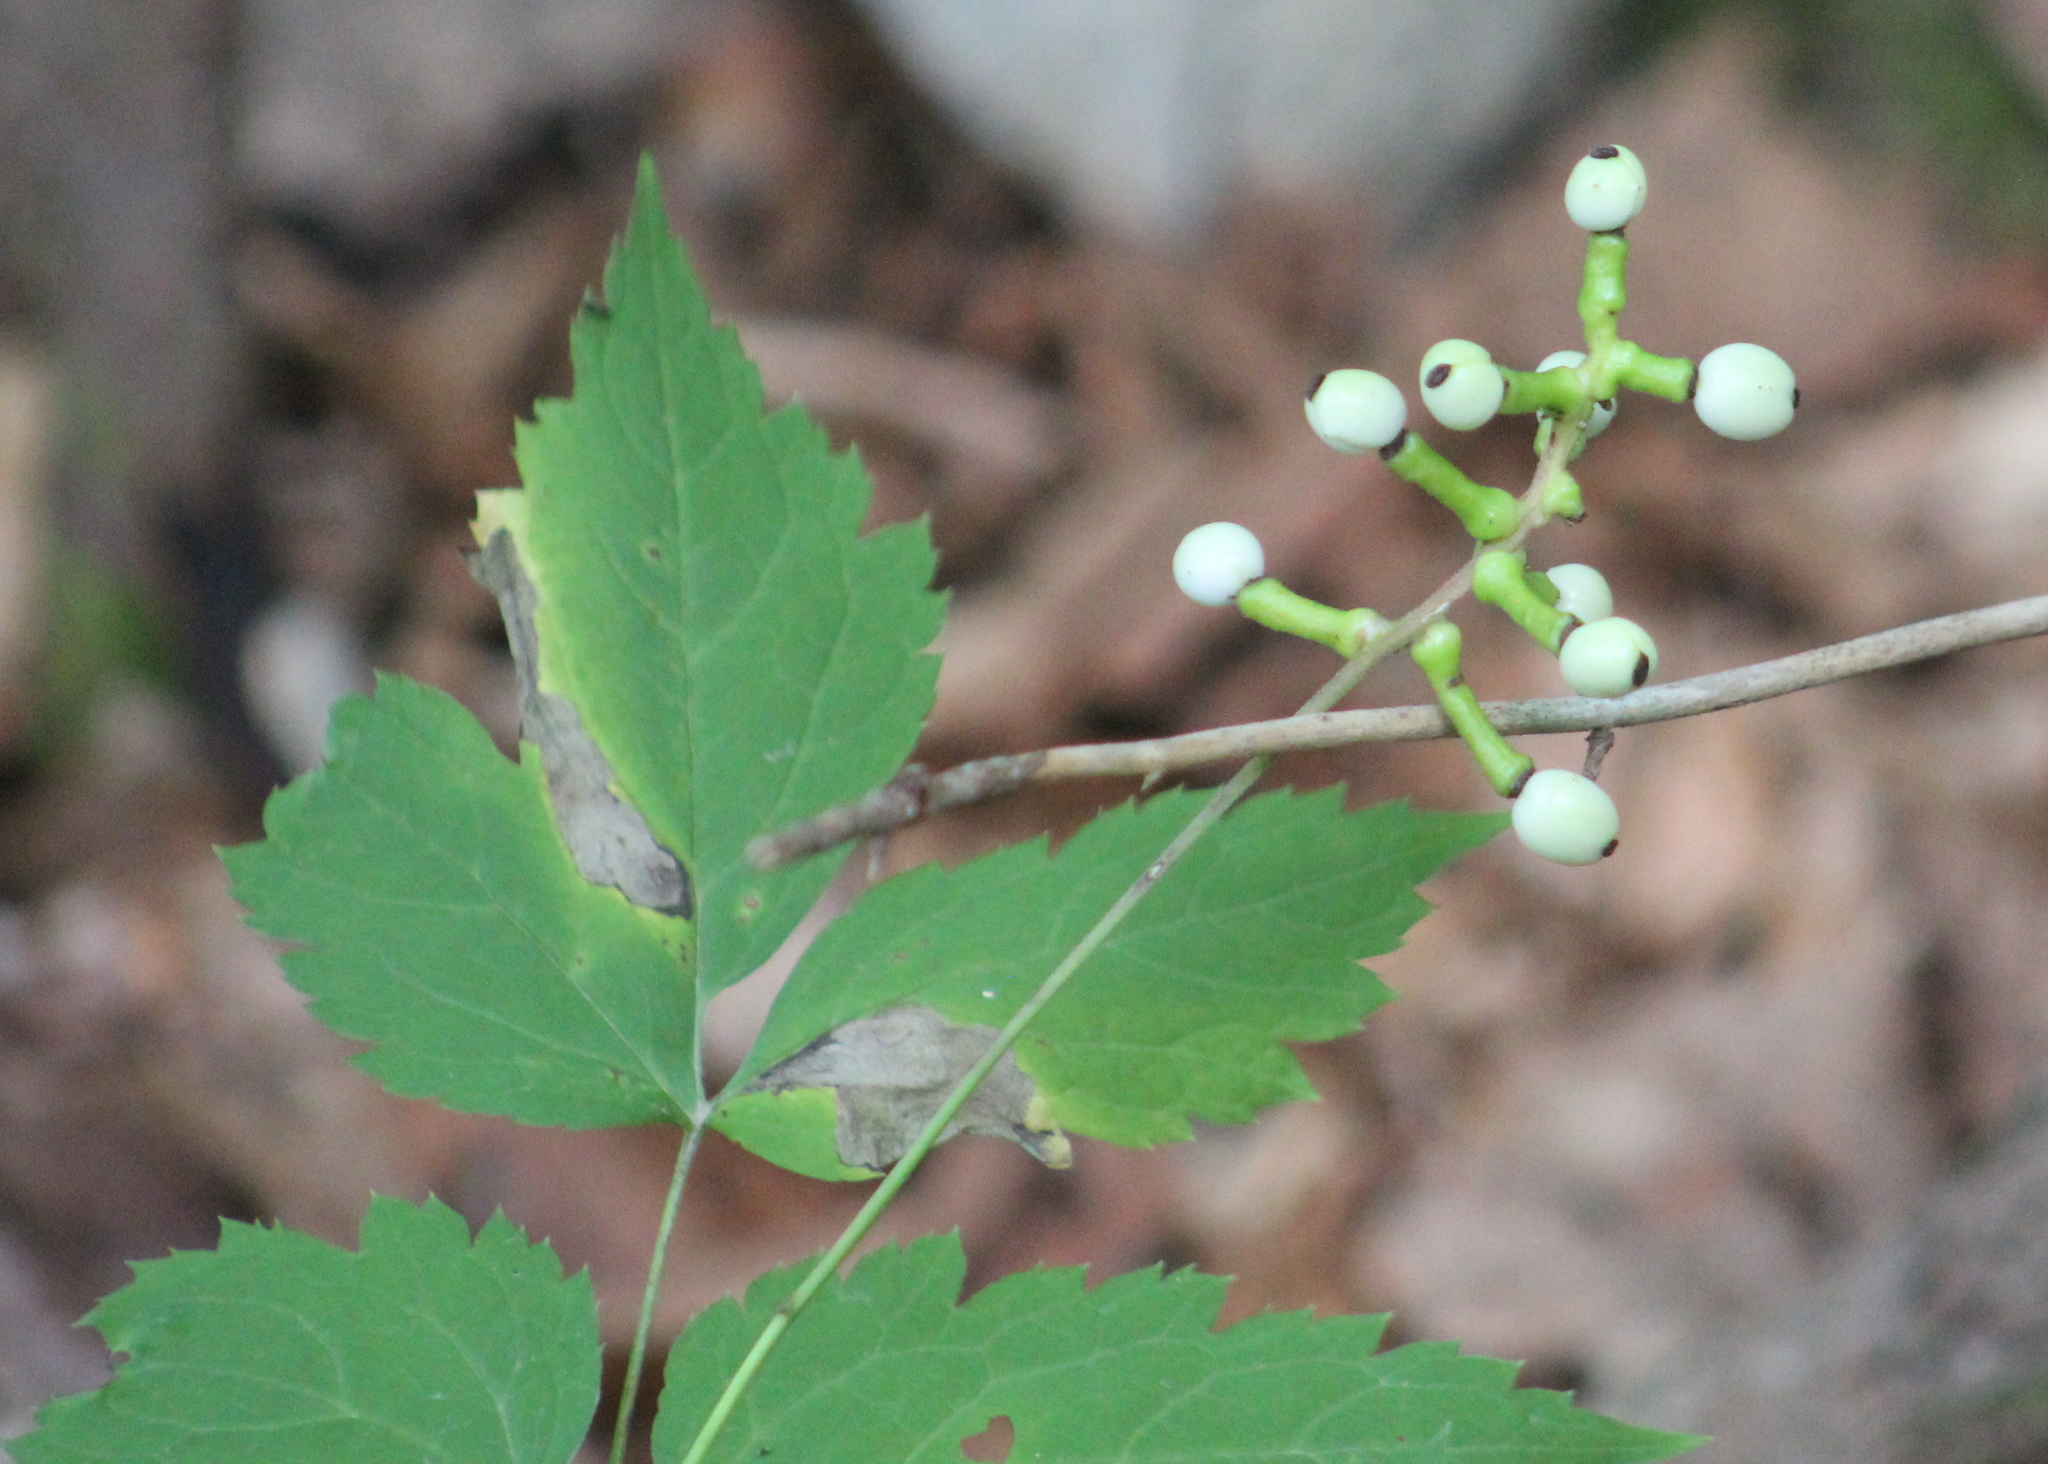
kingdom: Plantae
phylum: Tracheophyta
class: Magnoliopsida
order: Ranunculales
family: Ranunculaceae
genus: Actaea
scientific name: Actaea pachypoda
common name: Doll's-eyes
